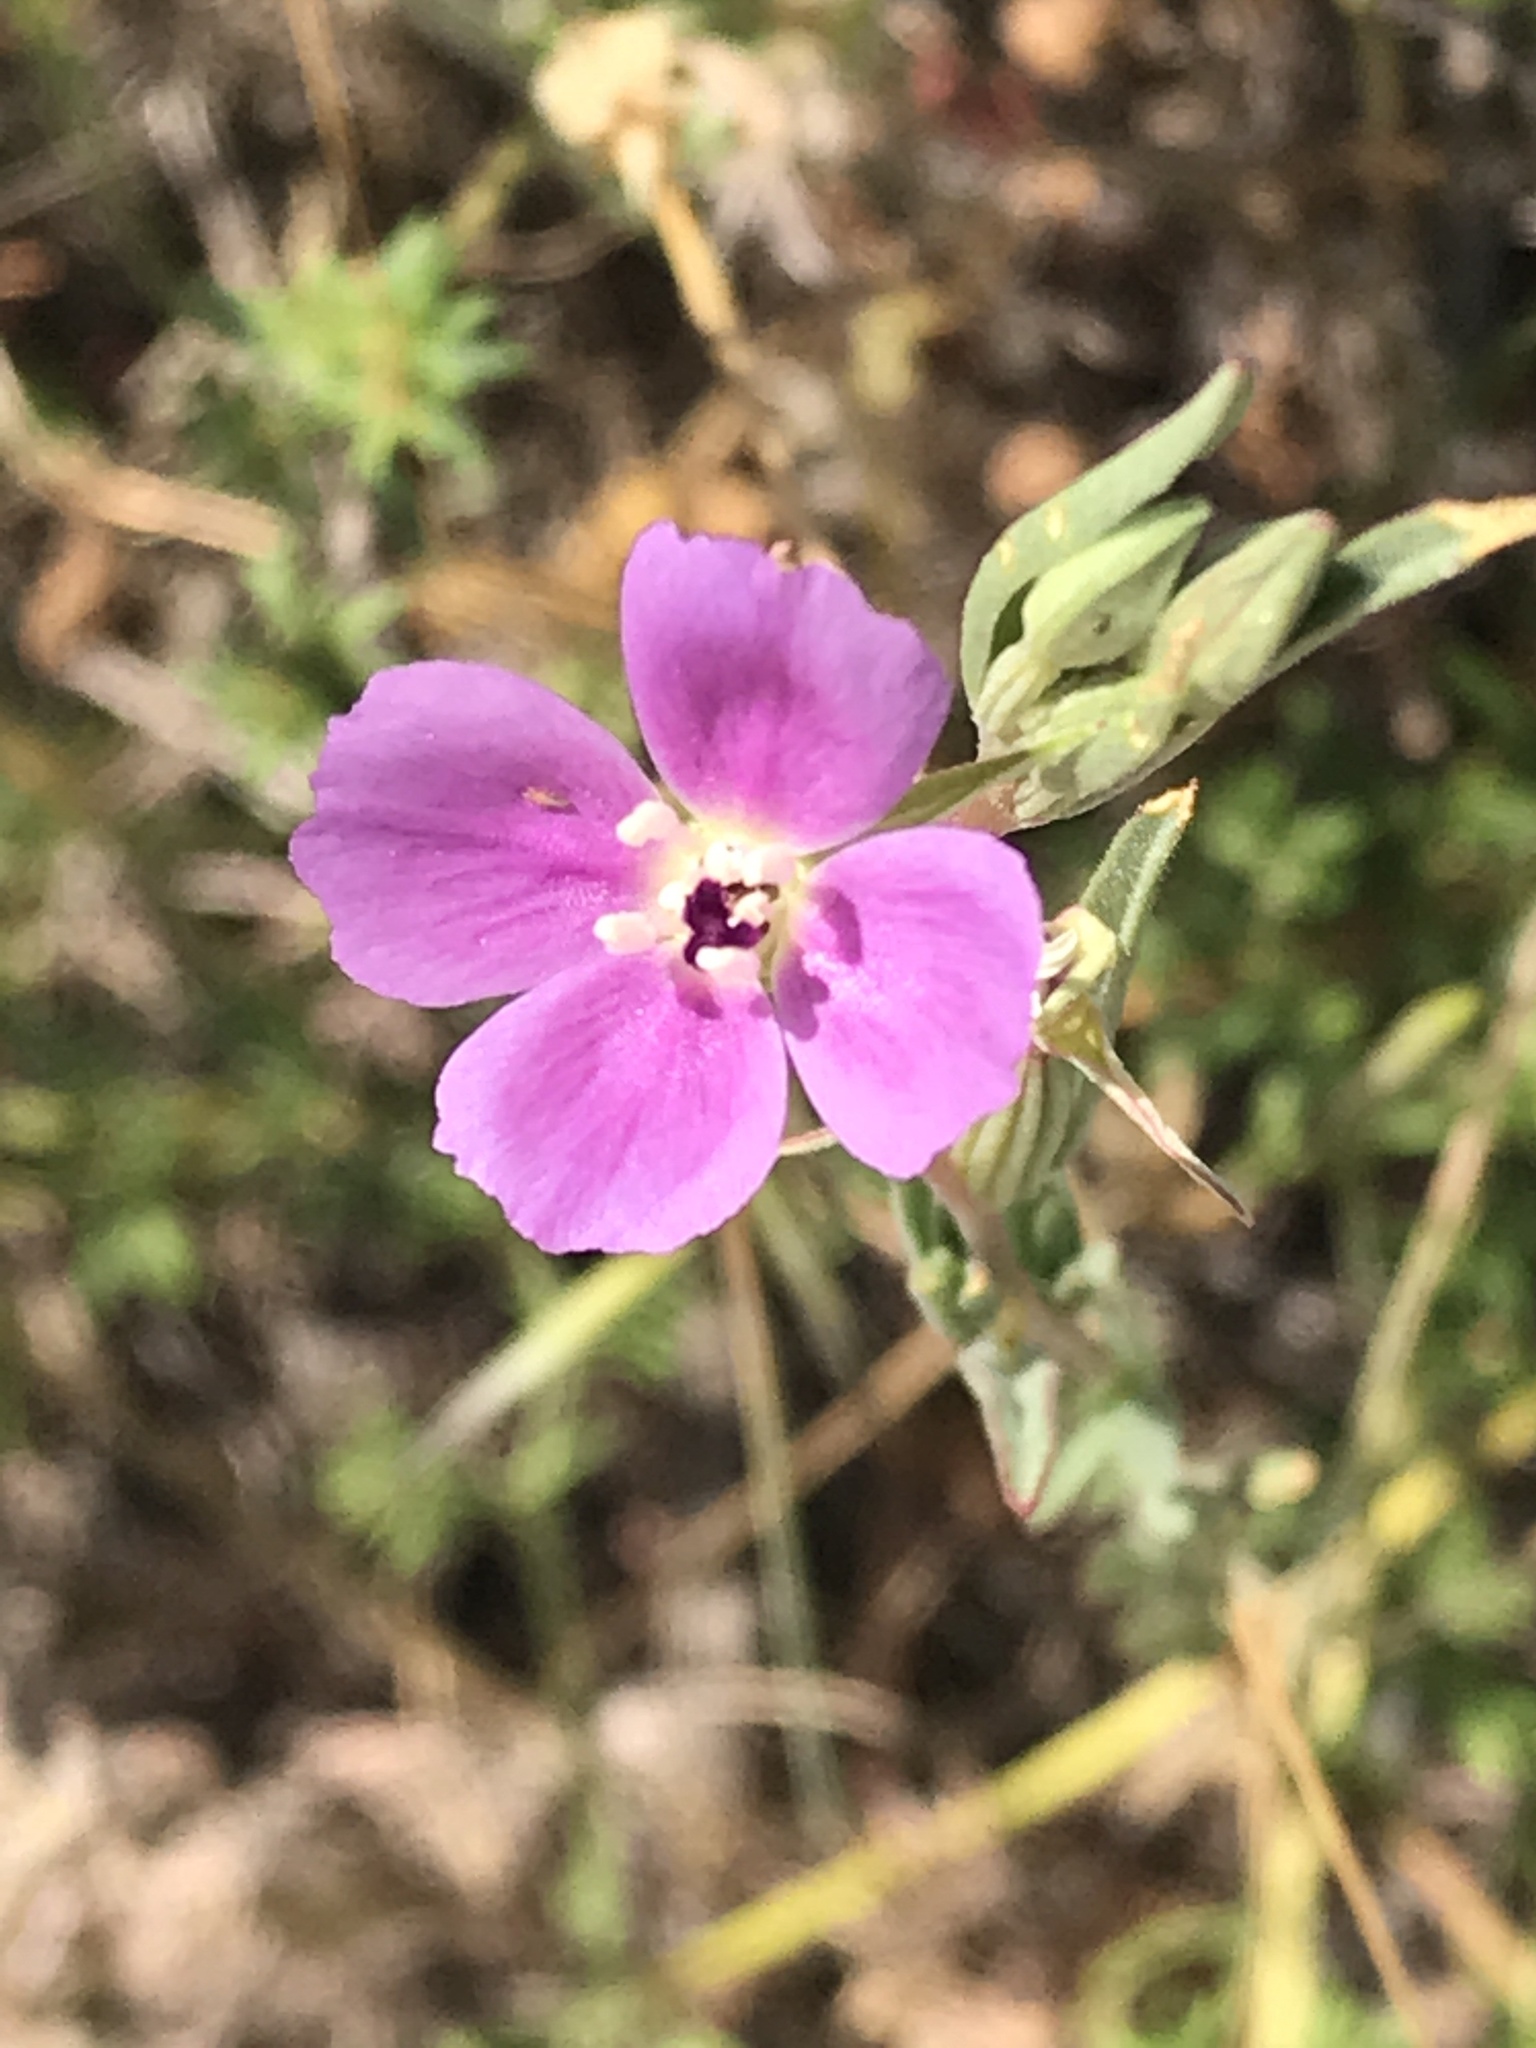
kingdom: Plantae
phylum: Tracheophyta
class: Magnoliopsida
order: Myrtales
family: Onagraceae
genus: Clarkia
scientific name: Clarkia purpurea
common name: Purple clarkia
